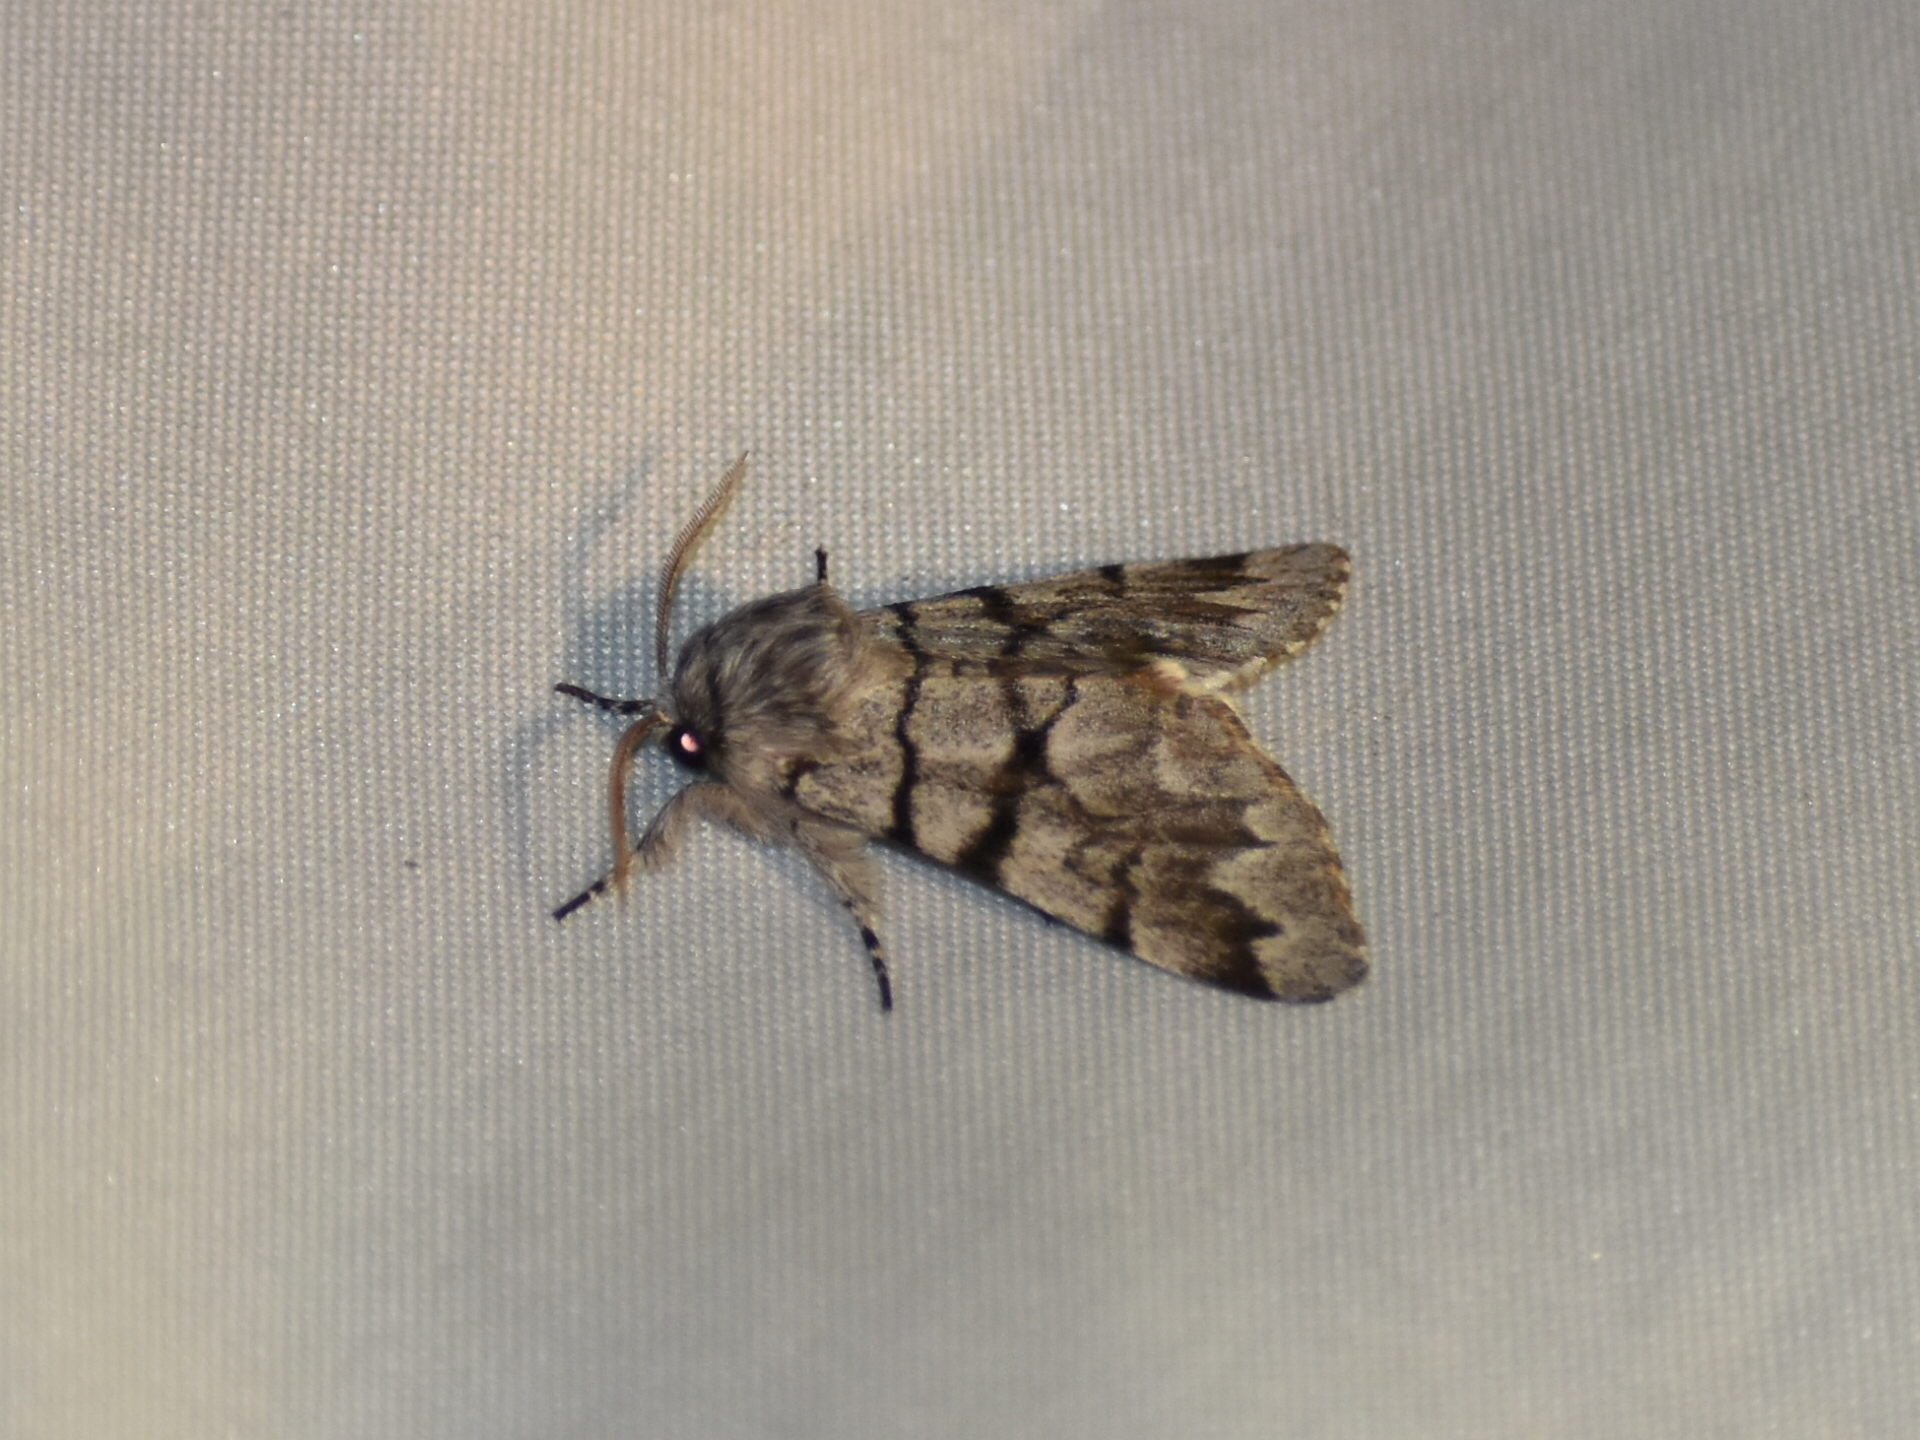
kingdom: Animalia
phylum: Arthropoda
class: Insecta
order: Lepidoptera
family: Noctuidae
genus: Panthea
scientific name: Panthea furcilla
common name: Eastern panthea moth
